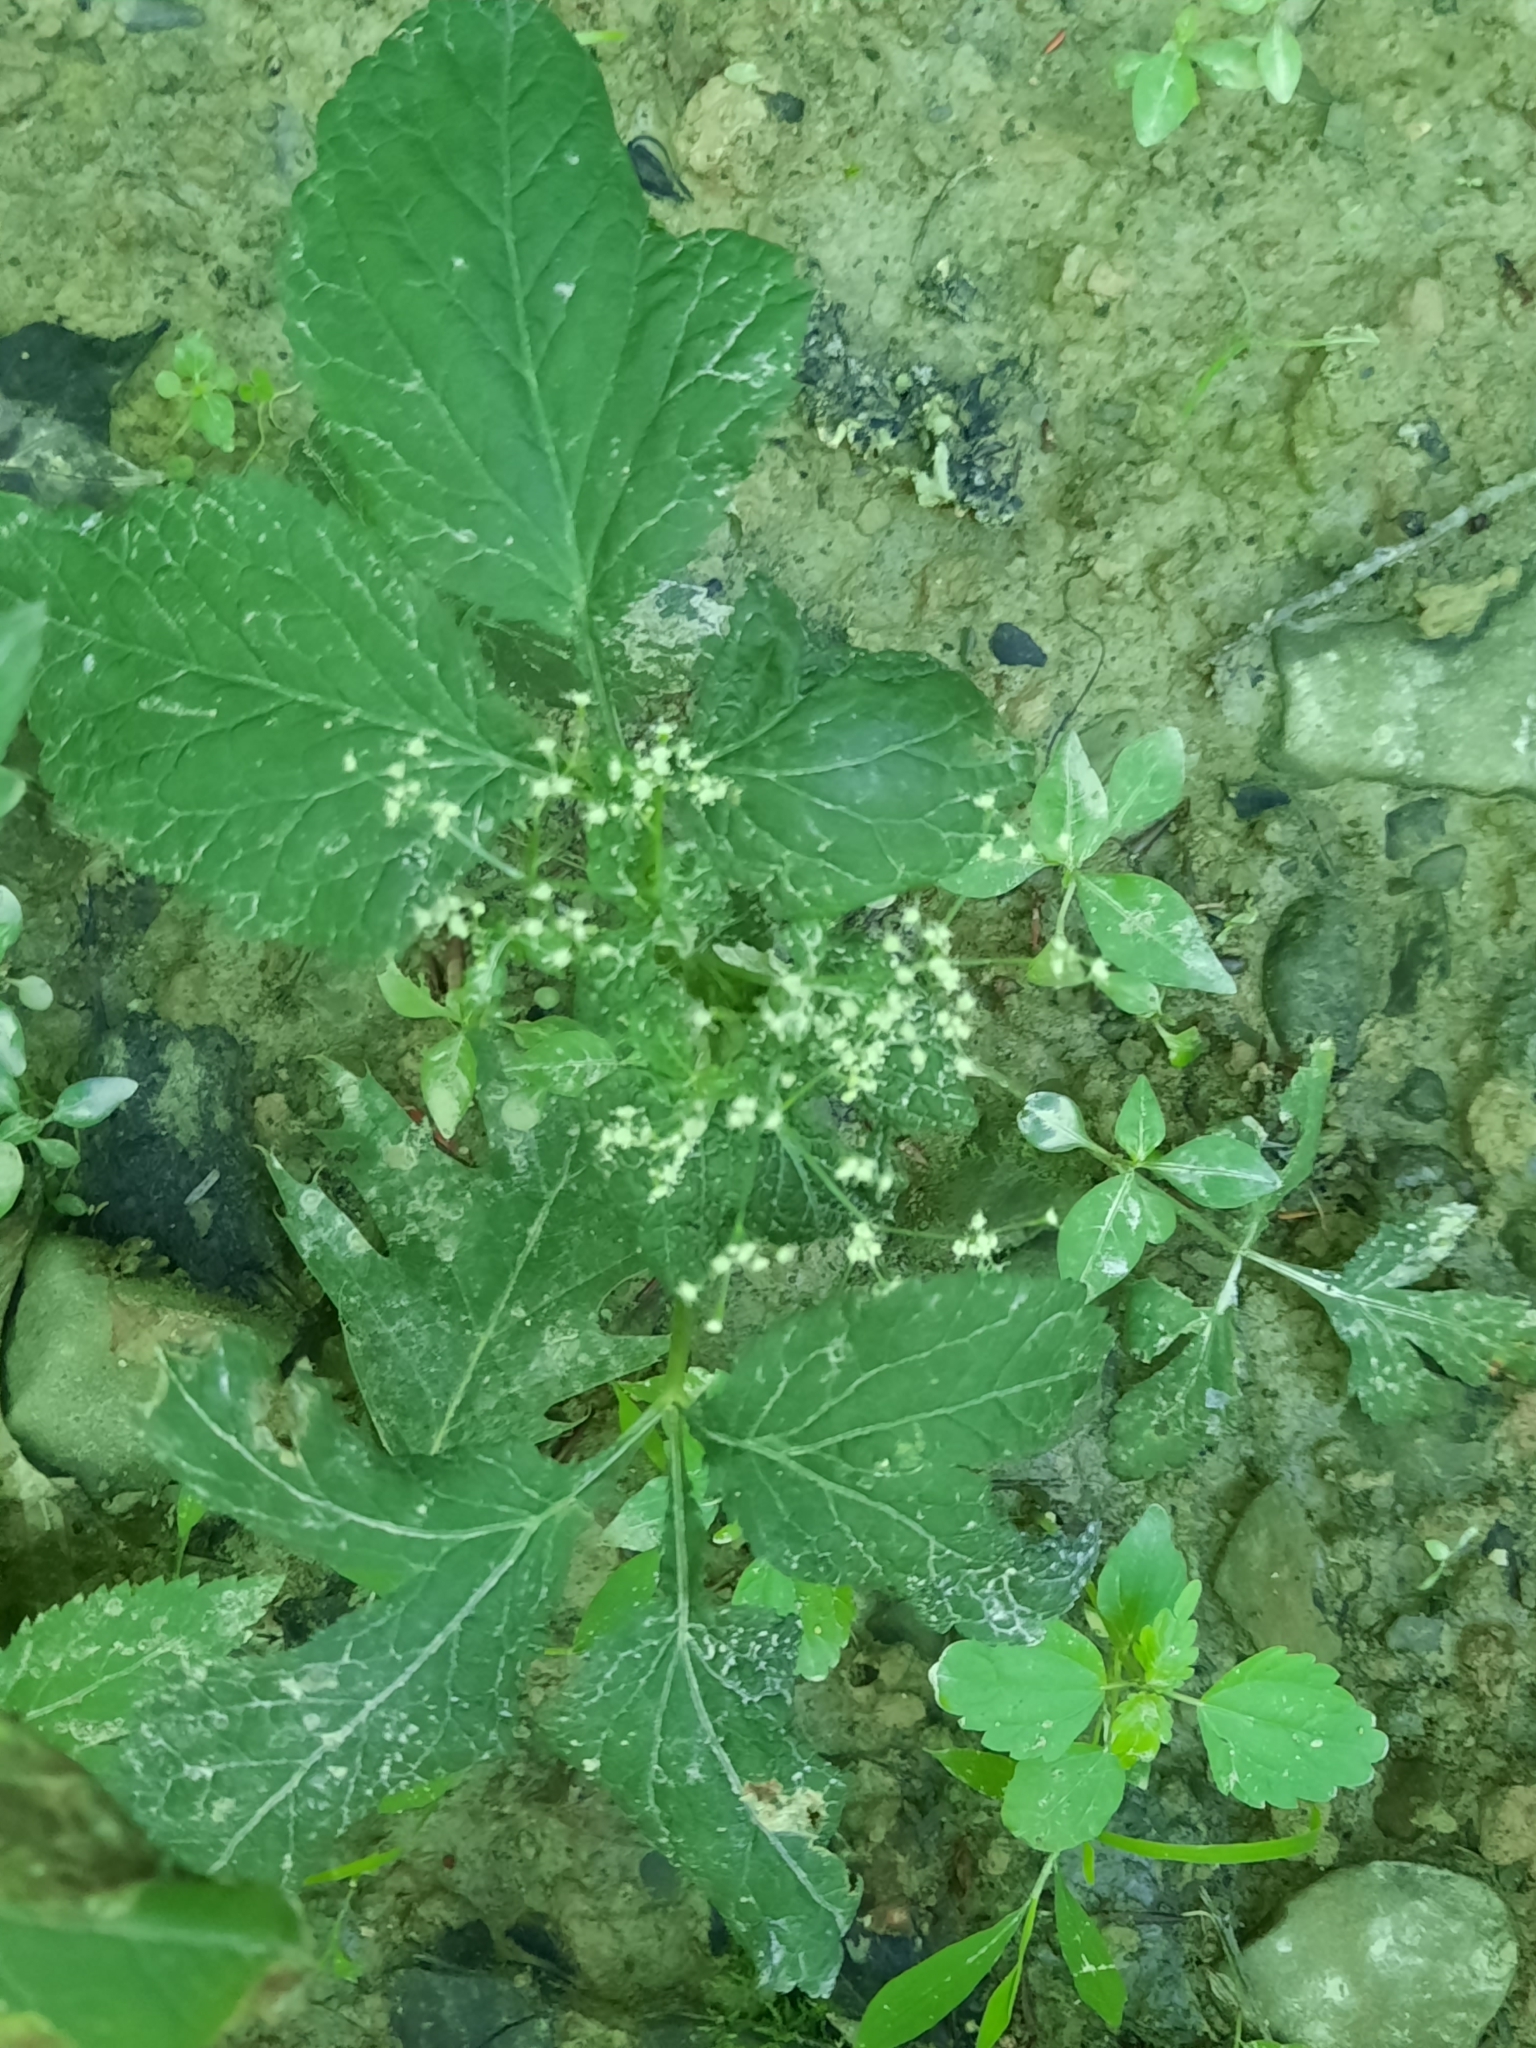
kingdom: Plantae
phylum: Tracheophyta
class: Magnoliopsida
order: Apiales
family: Apiaceae
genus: Cryptotaenia
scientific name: Cryptotaenia canadensis
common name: Honewort
